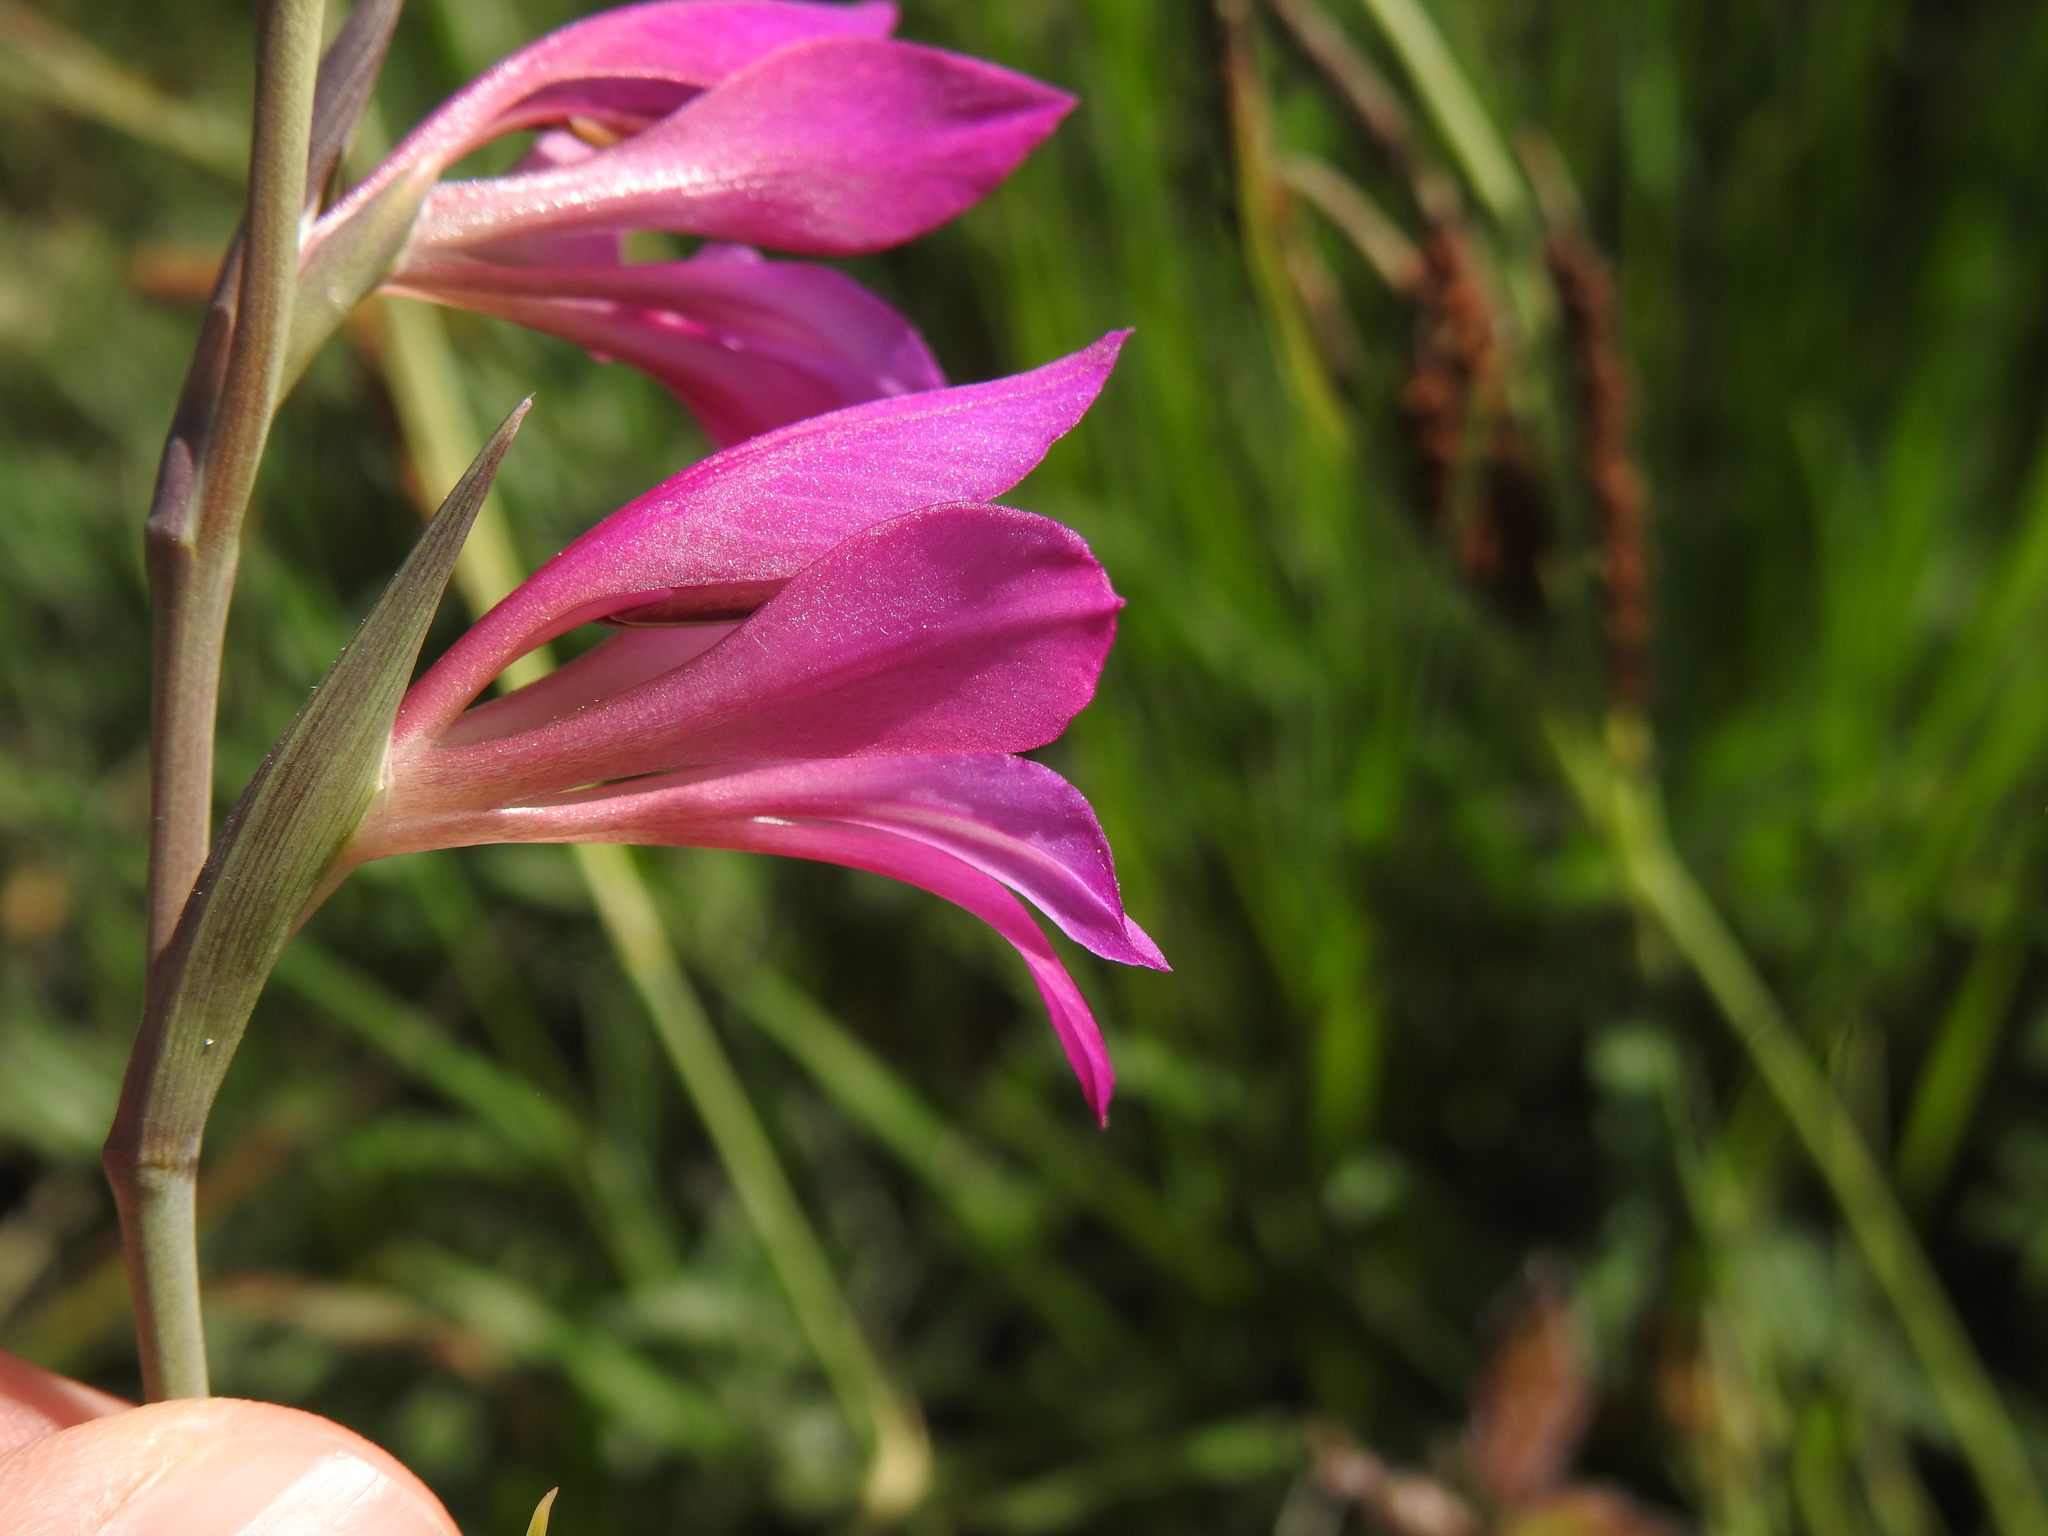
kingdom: Plantae
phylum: Tracheophyta
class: Liliopsida
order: Asparagales
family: Iridaceae
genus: Gladiolus
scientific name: Gladiolus dubius
